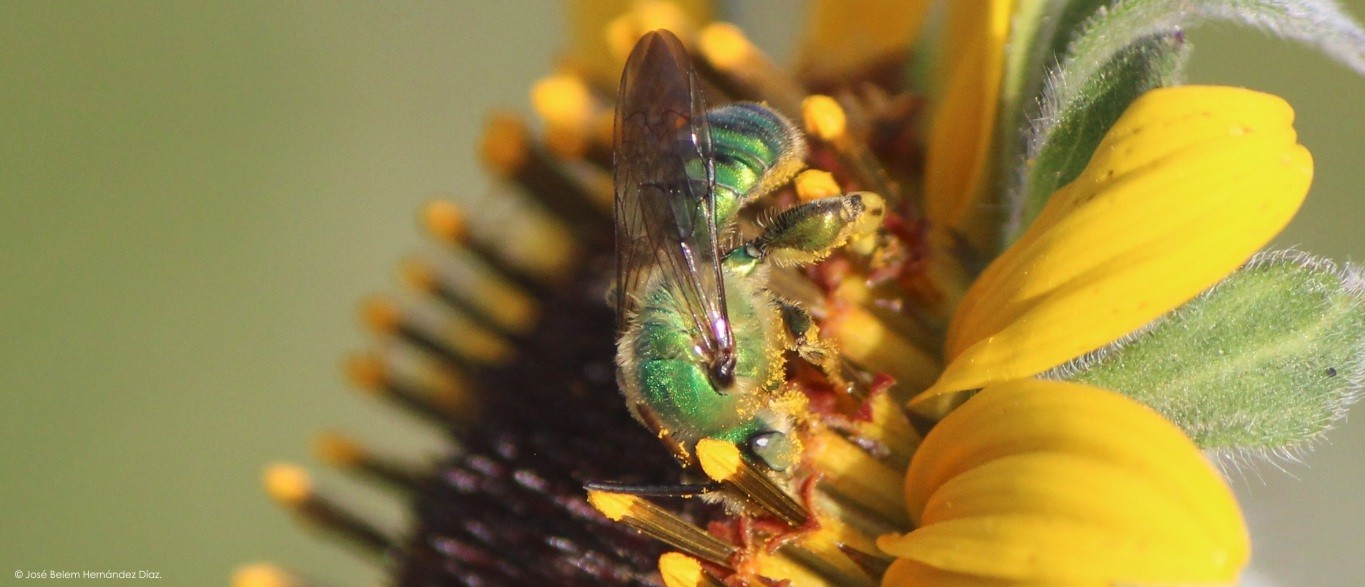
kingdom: Animalia
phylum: Arthropoda
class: Insecta
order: Hymenoptera
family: Halictidae
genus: Paragapostemon
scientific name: Paragapostemon coelestinus
